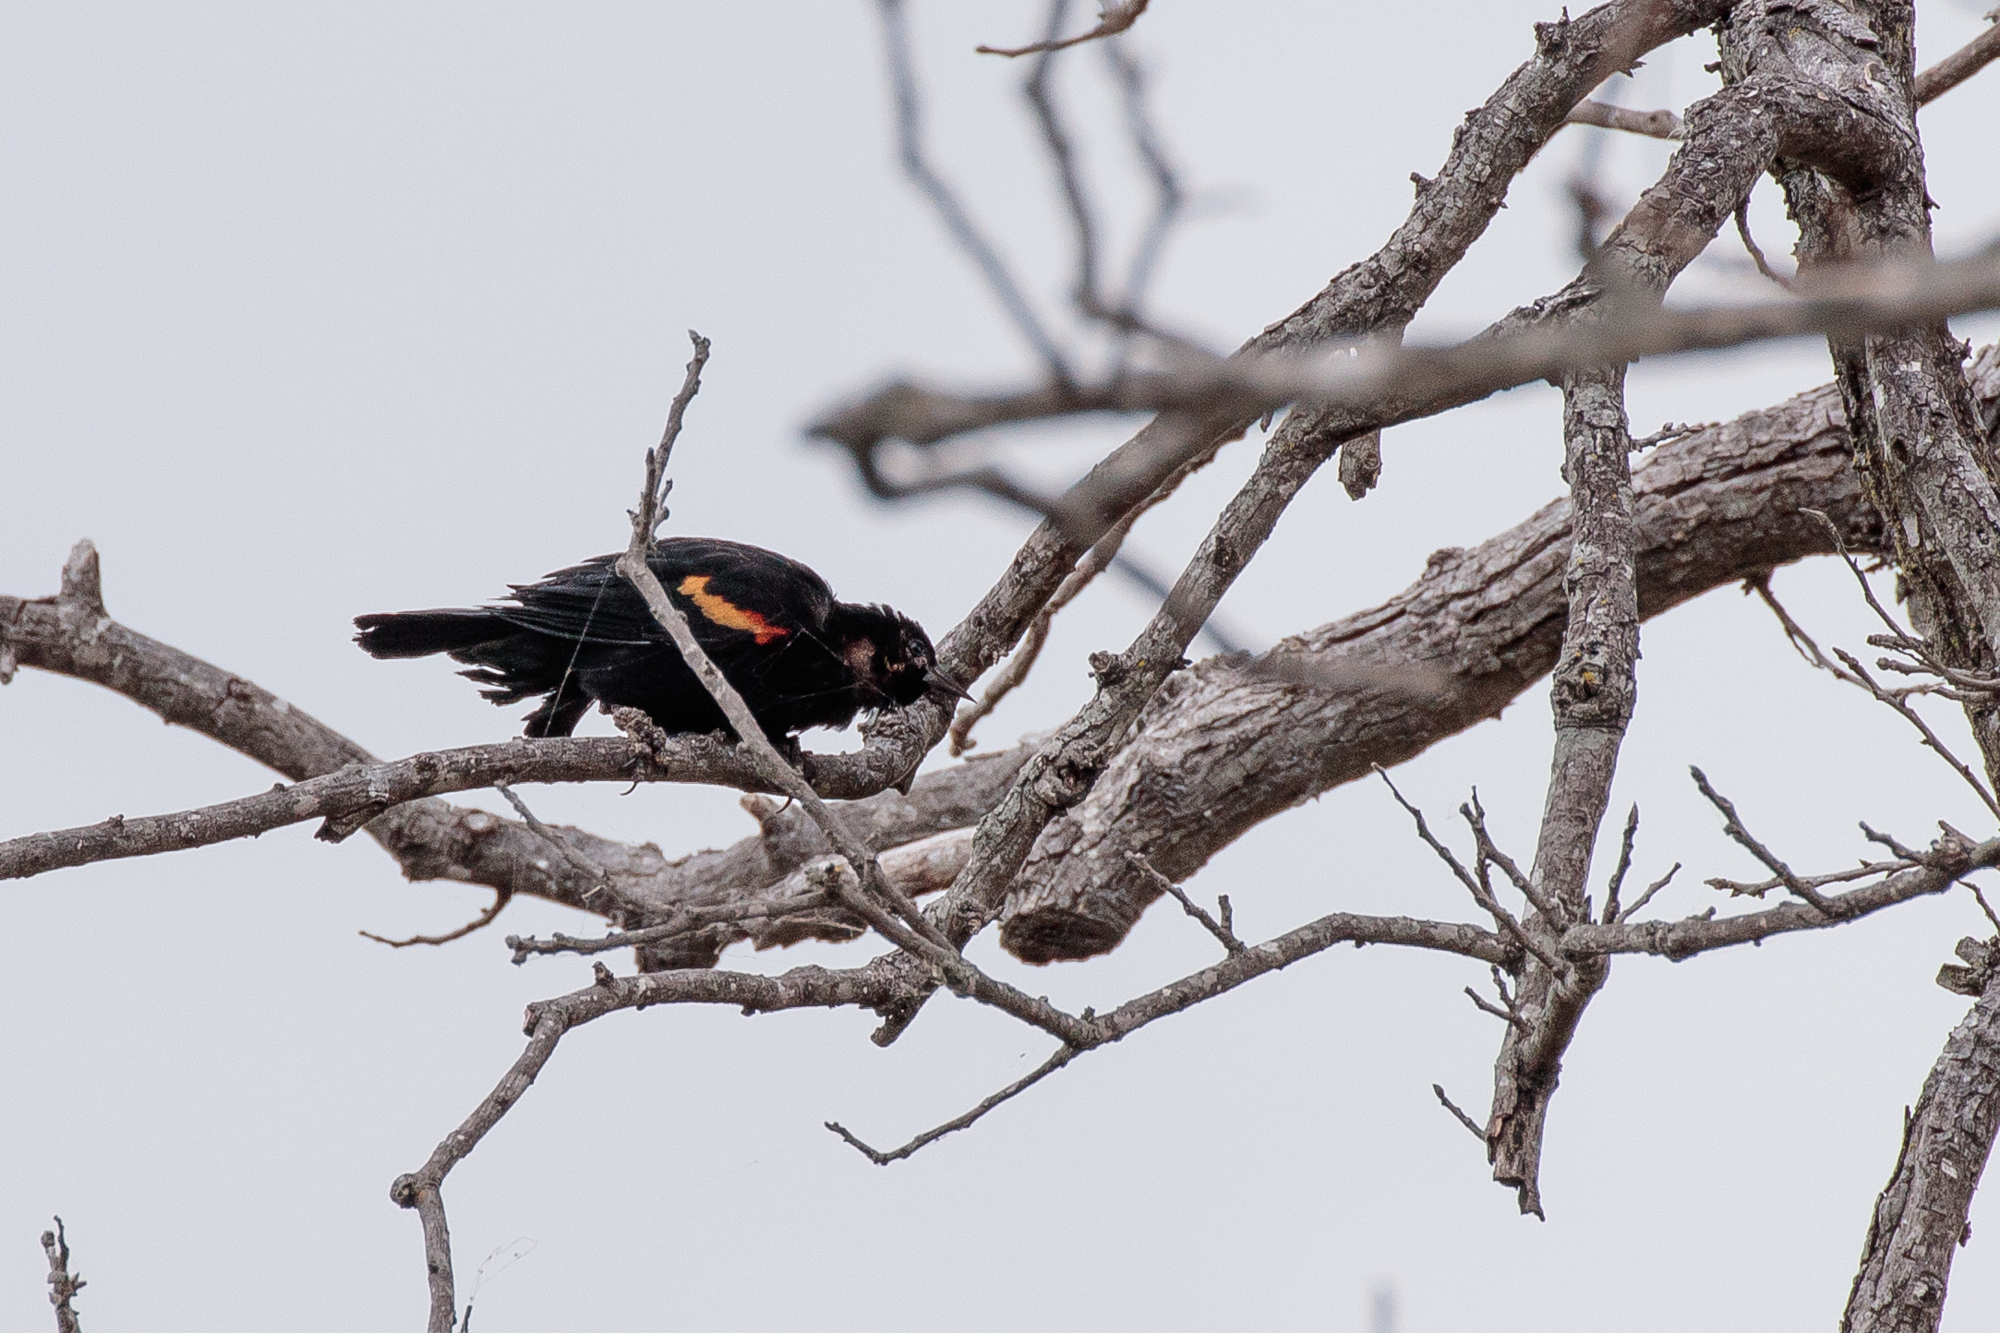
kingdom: Animalia
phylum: Chordata
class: Aves
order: Passeriformes
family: Icteridae
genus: Agelaius
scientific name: Agelaius phoeniceus
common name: Red-winged blackbird
